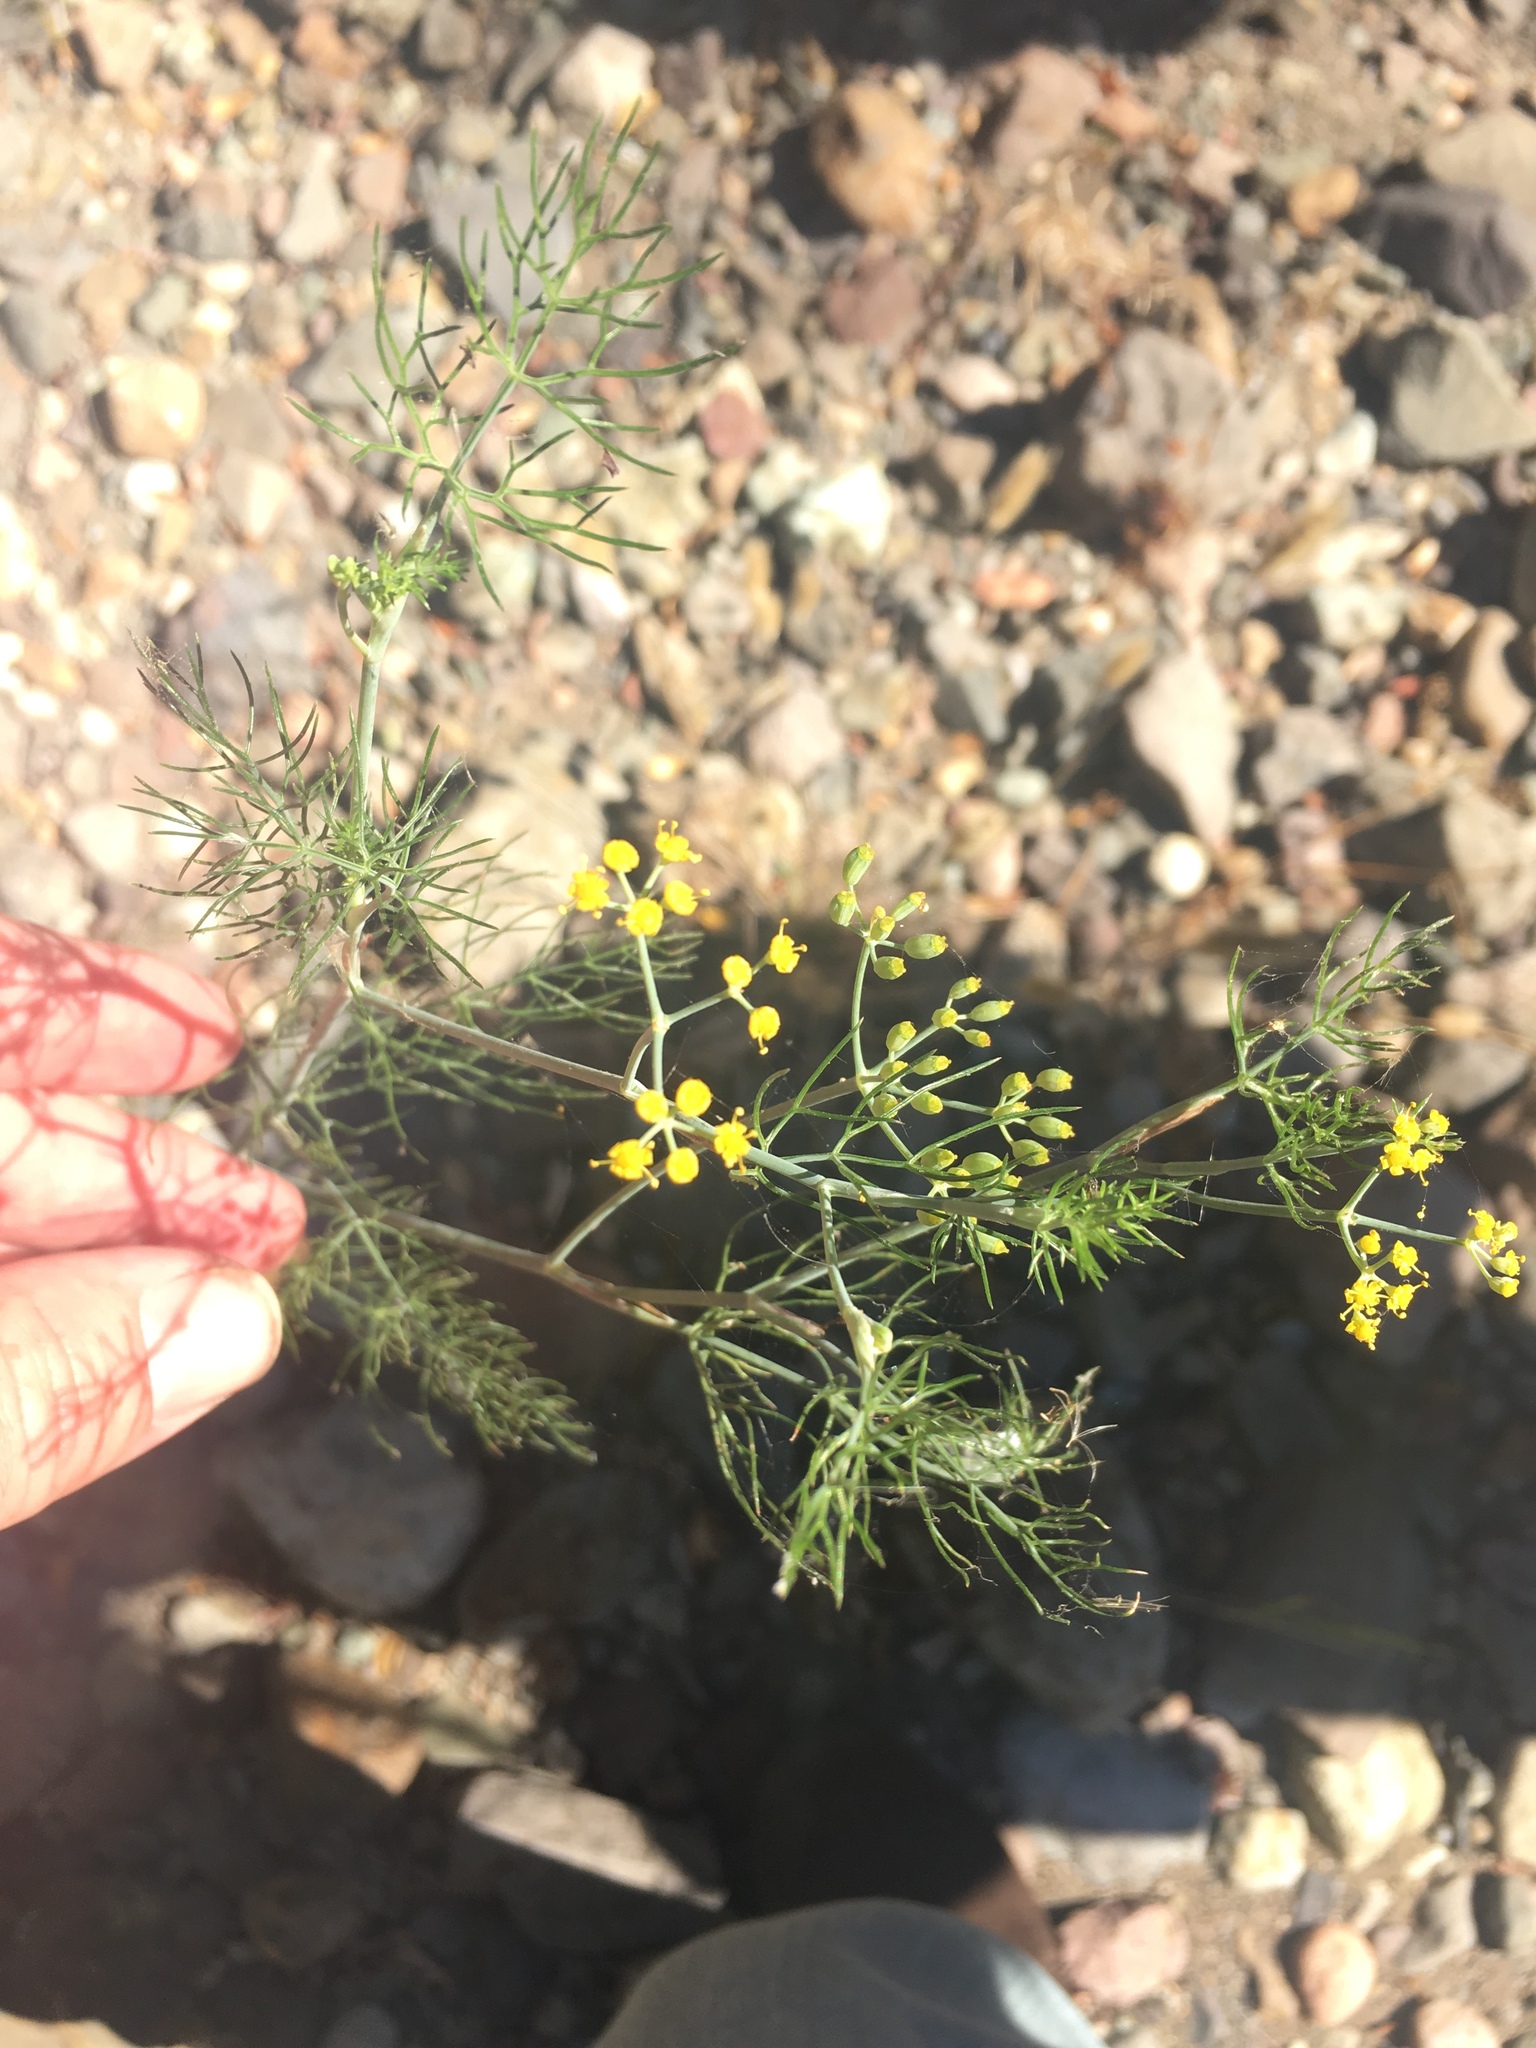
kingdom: Plantae
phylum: Tracheophyta
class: Magnoliopsida
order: Apiales
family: Apiaceae
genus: Foeniculum
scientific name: Foeniculum vulgare
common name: Fennel
